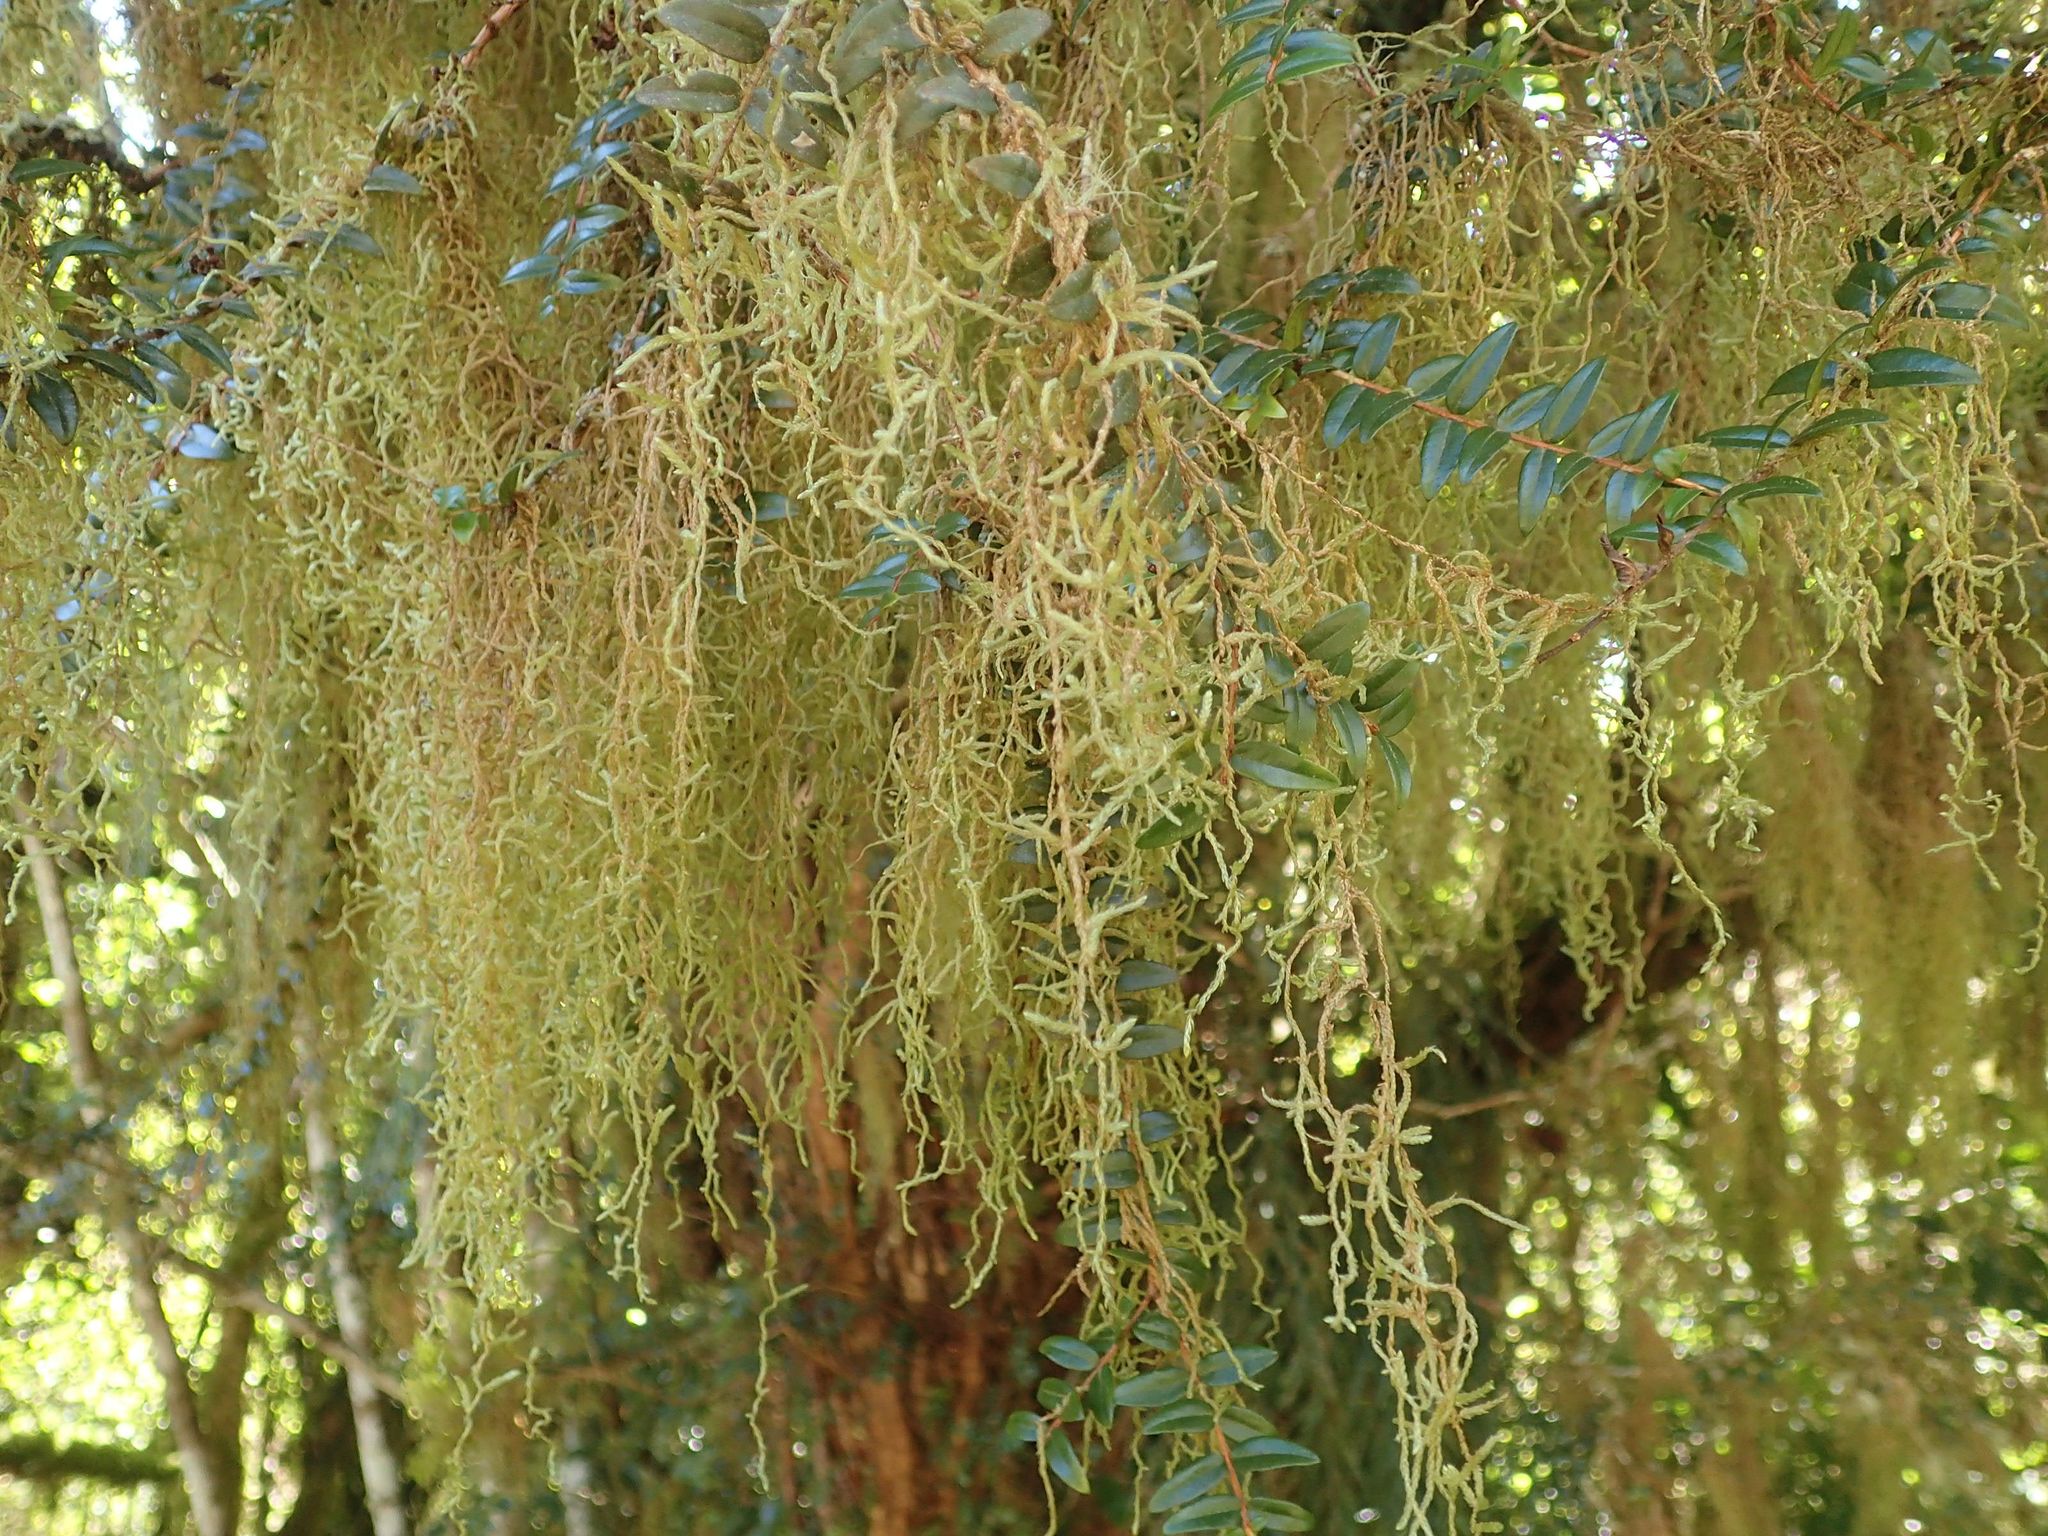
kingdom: Plantae
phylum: Bryophyta
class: Bryopsida
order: Hypnales
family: Lembophyllaceae
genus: Weymouthia
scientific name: Weymouthia mollis
